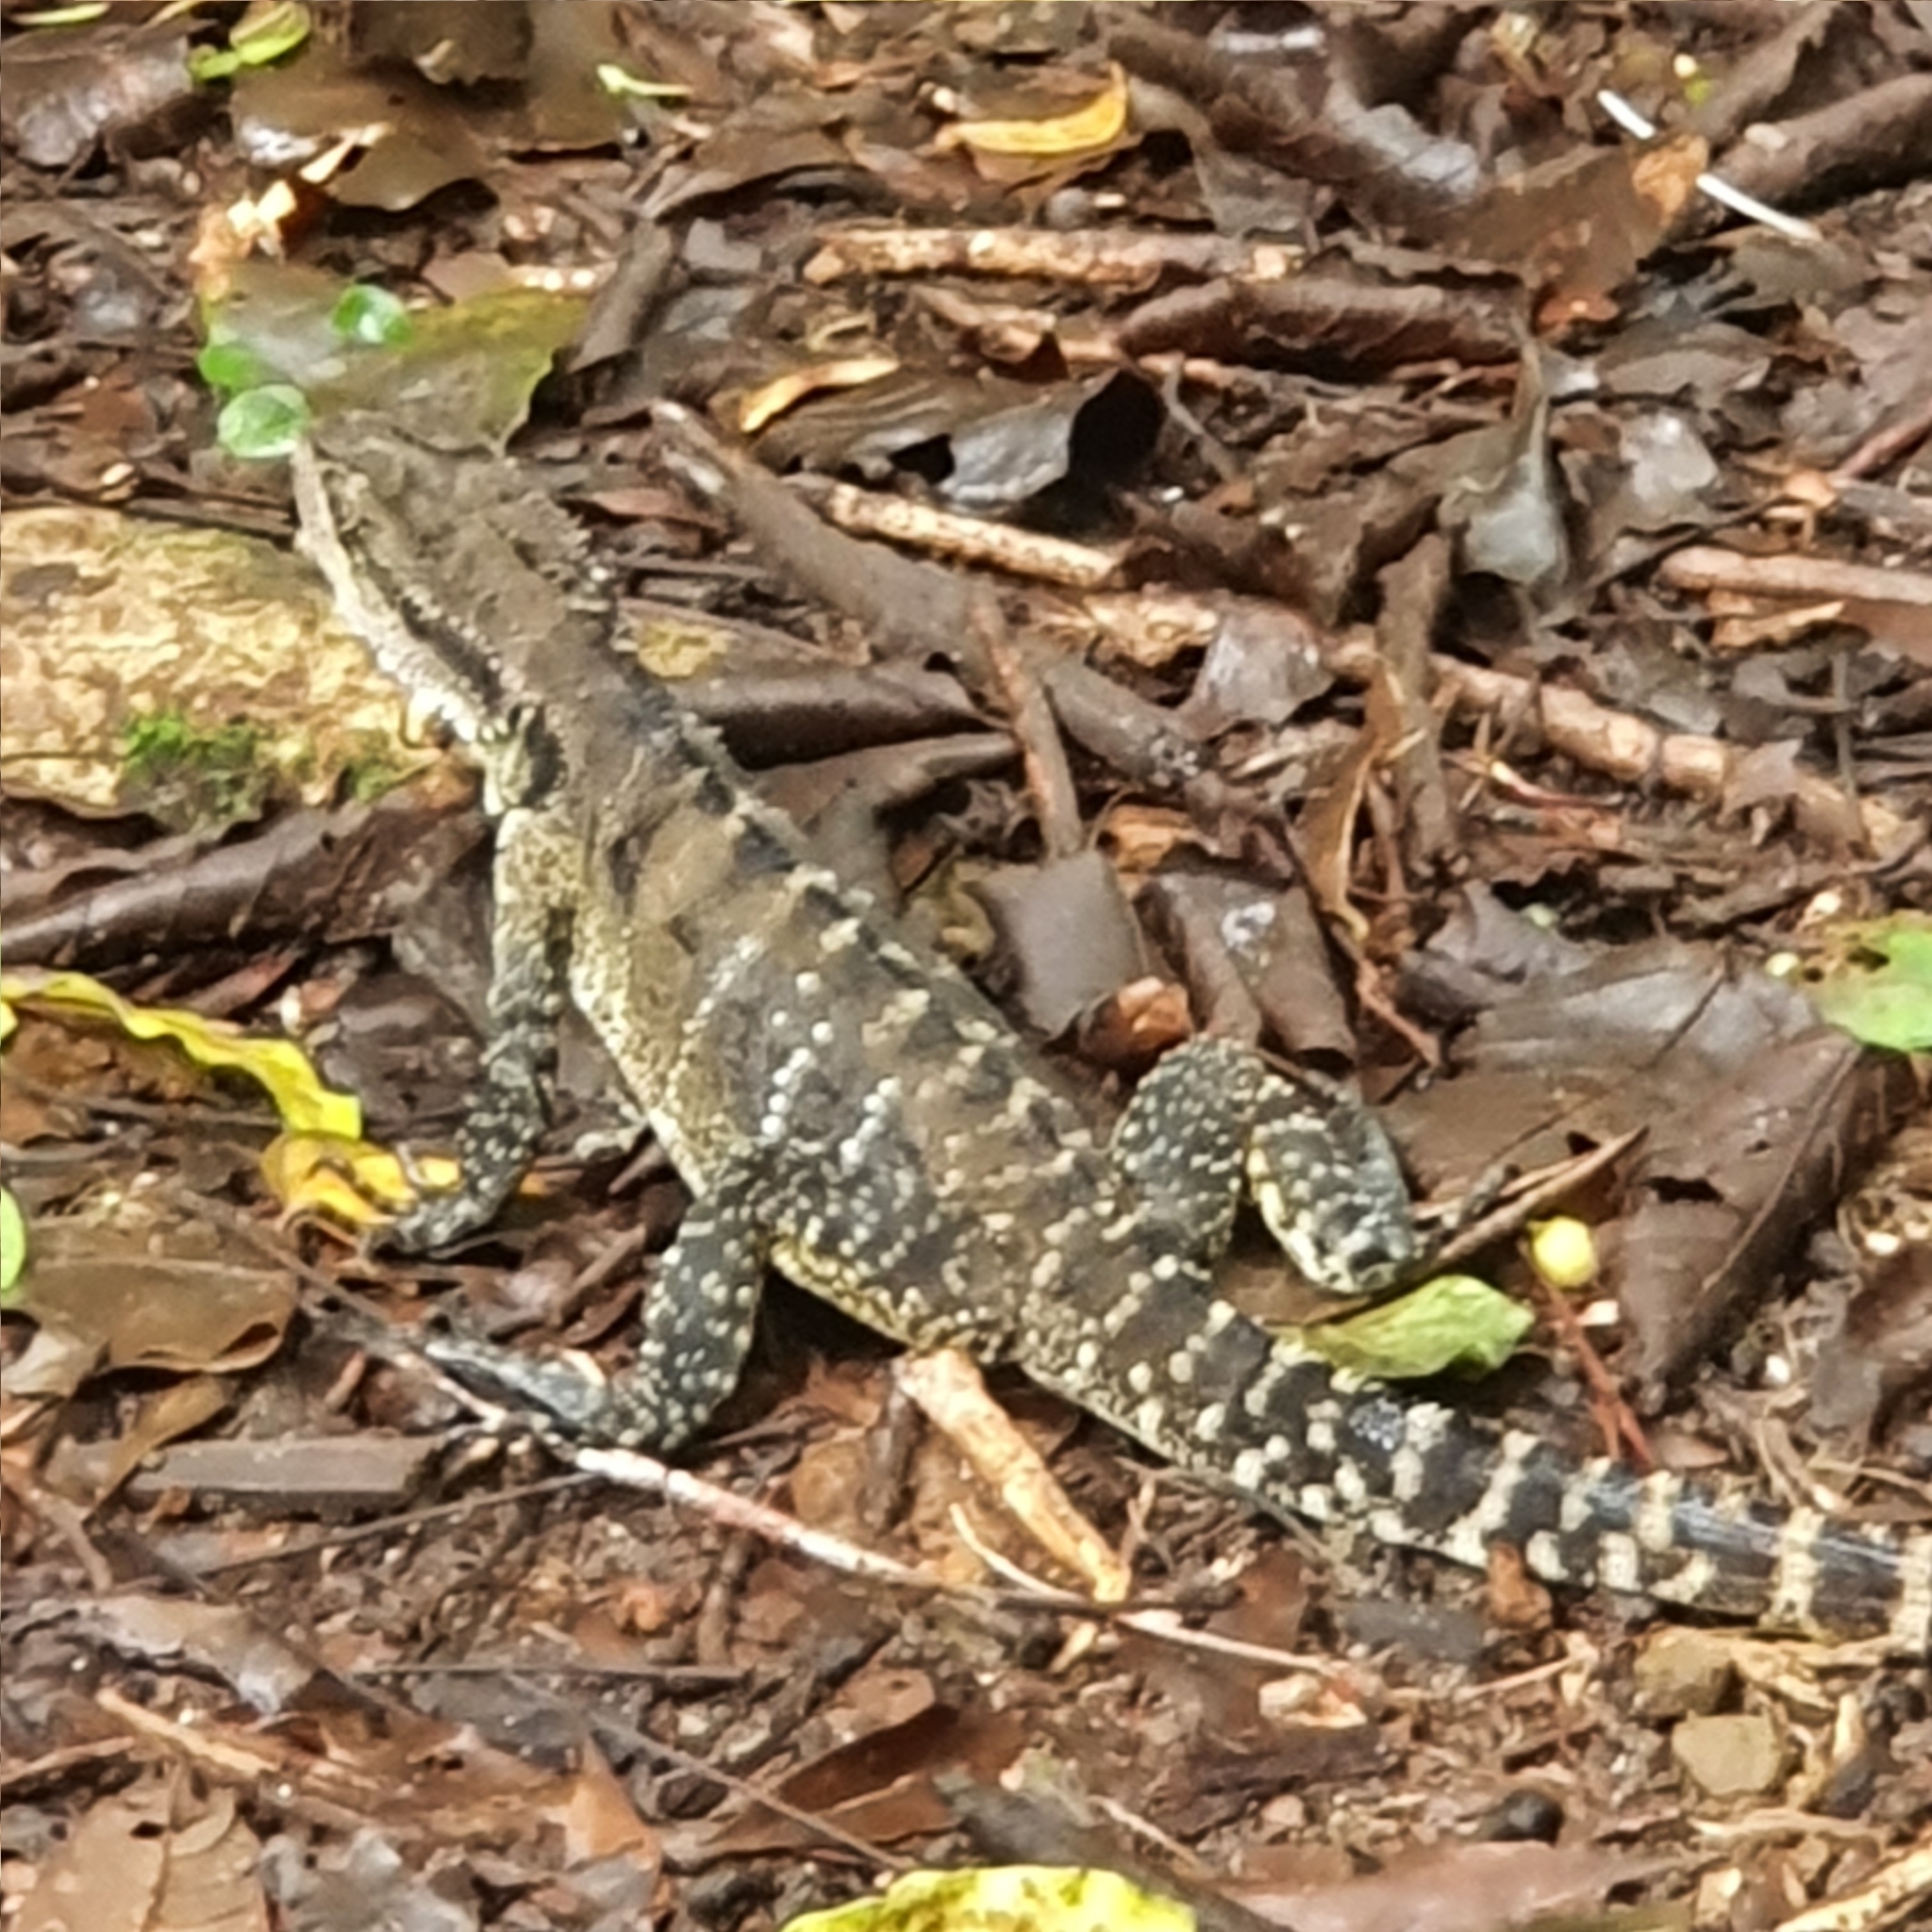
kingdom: Animalia
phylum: Chordata
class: Squamata
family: Agamidae
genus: Intellagama
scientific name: Intellagama lesueurii
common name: Eastern water dragon
